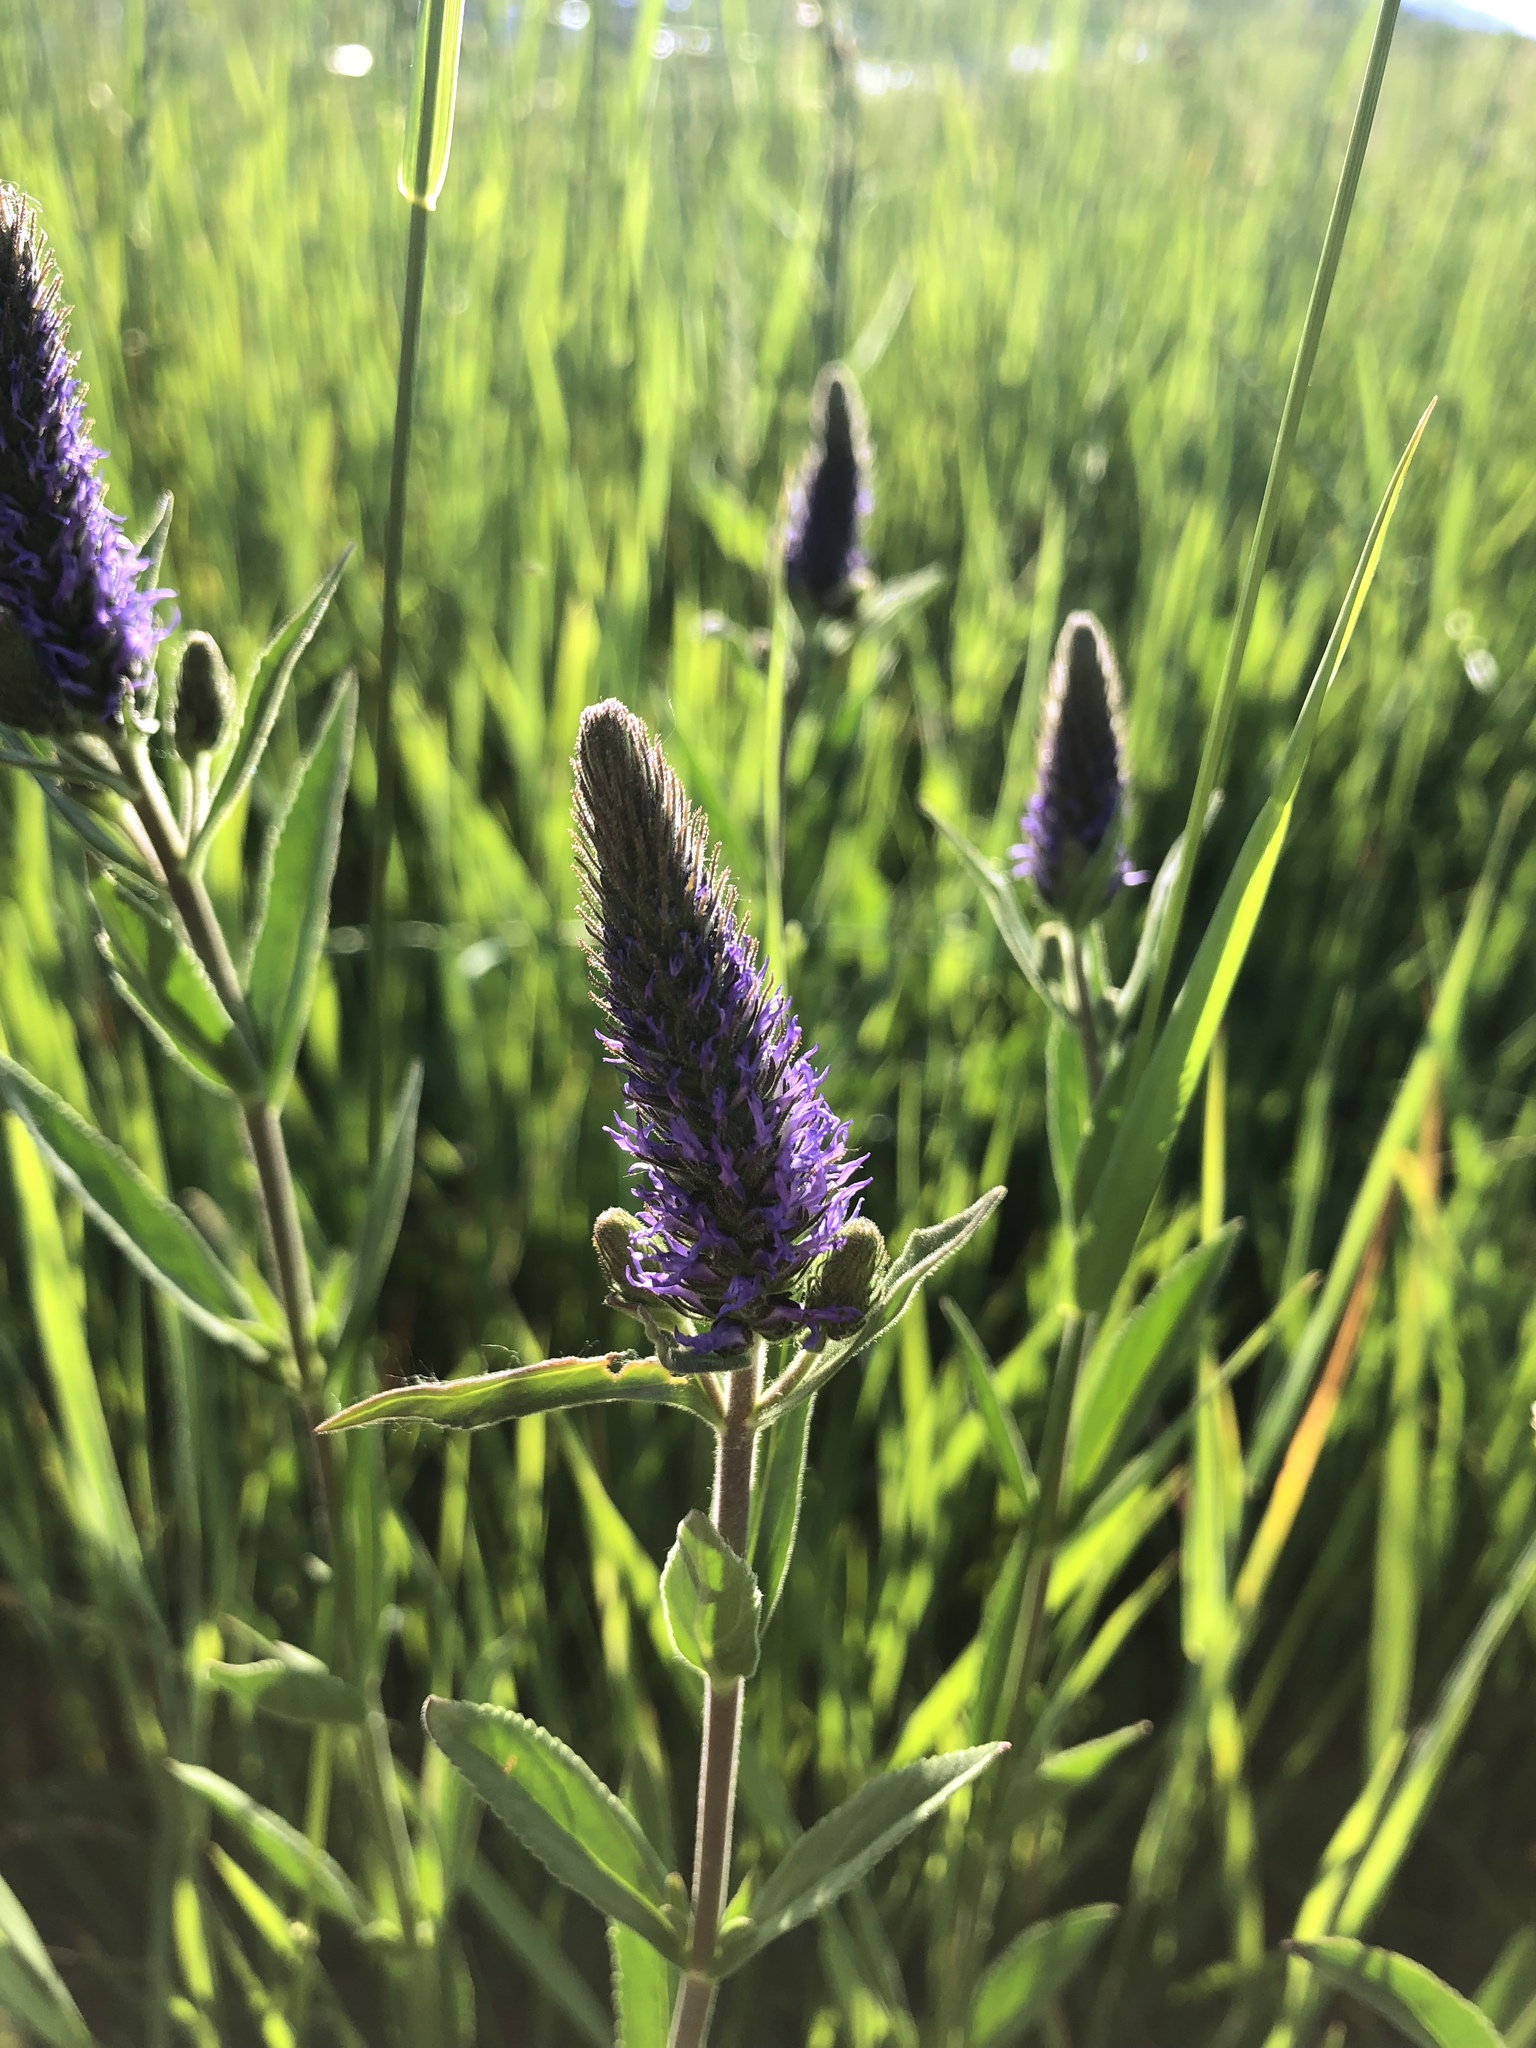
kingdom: Plantae
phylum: Tracheophyta
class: Magnoliopsida
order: Lamiales
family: Plantaginaceae
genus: Veronica
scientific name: Veronica spicata
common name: Spiked speedwell
